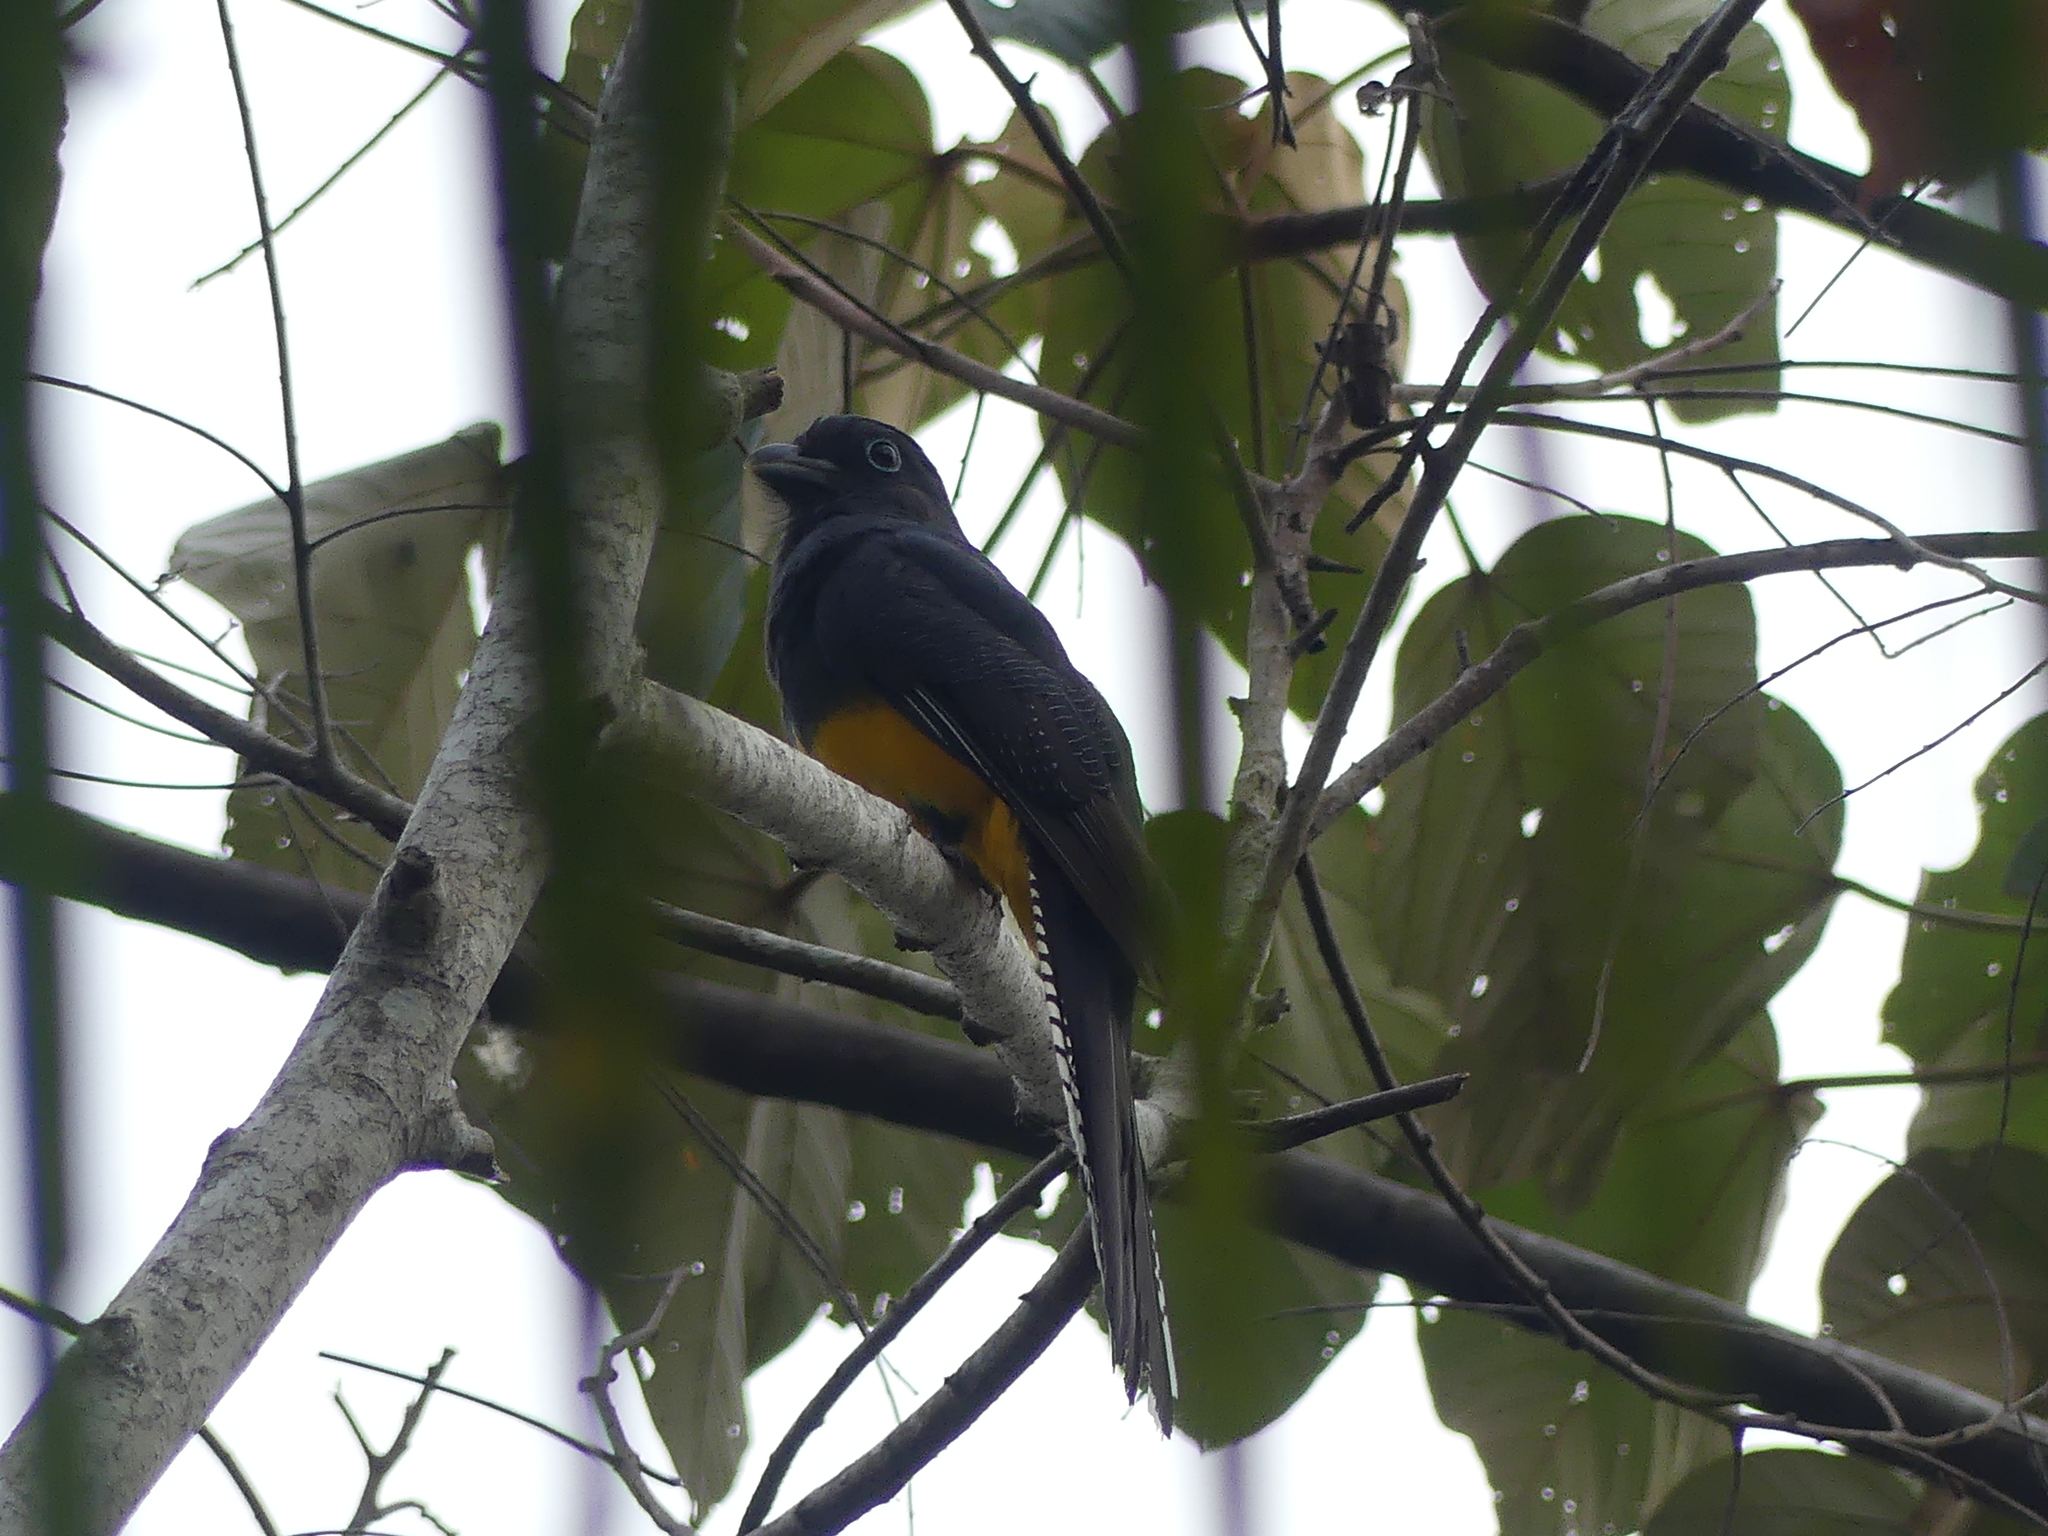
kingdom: Animalia
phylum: Chordata
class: Aves
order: Trogoniformes
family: Trogonidae
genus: Trogon
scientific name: Trogon viridis
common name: Green-backed trogon
